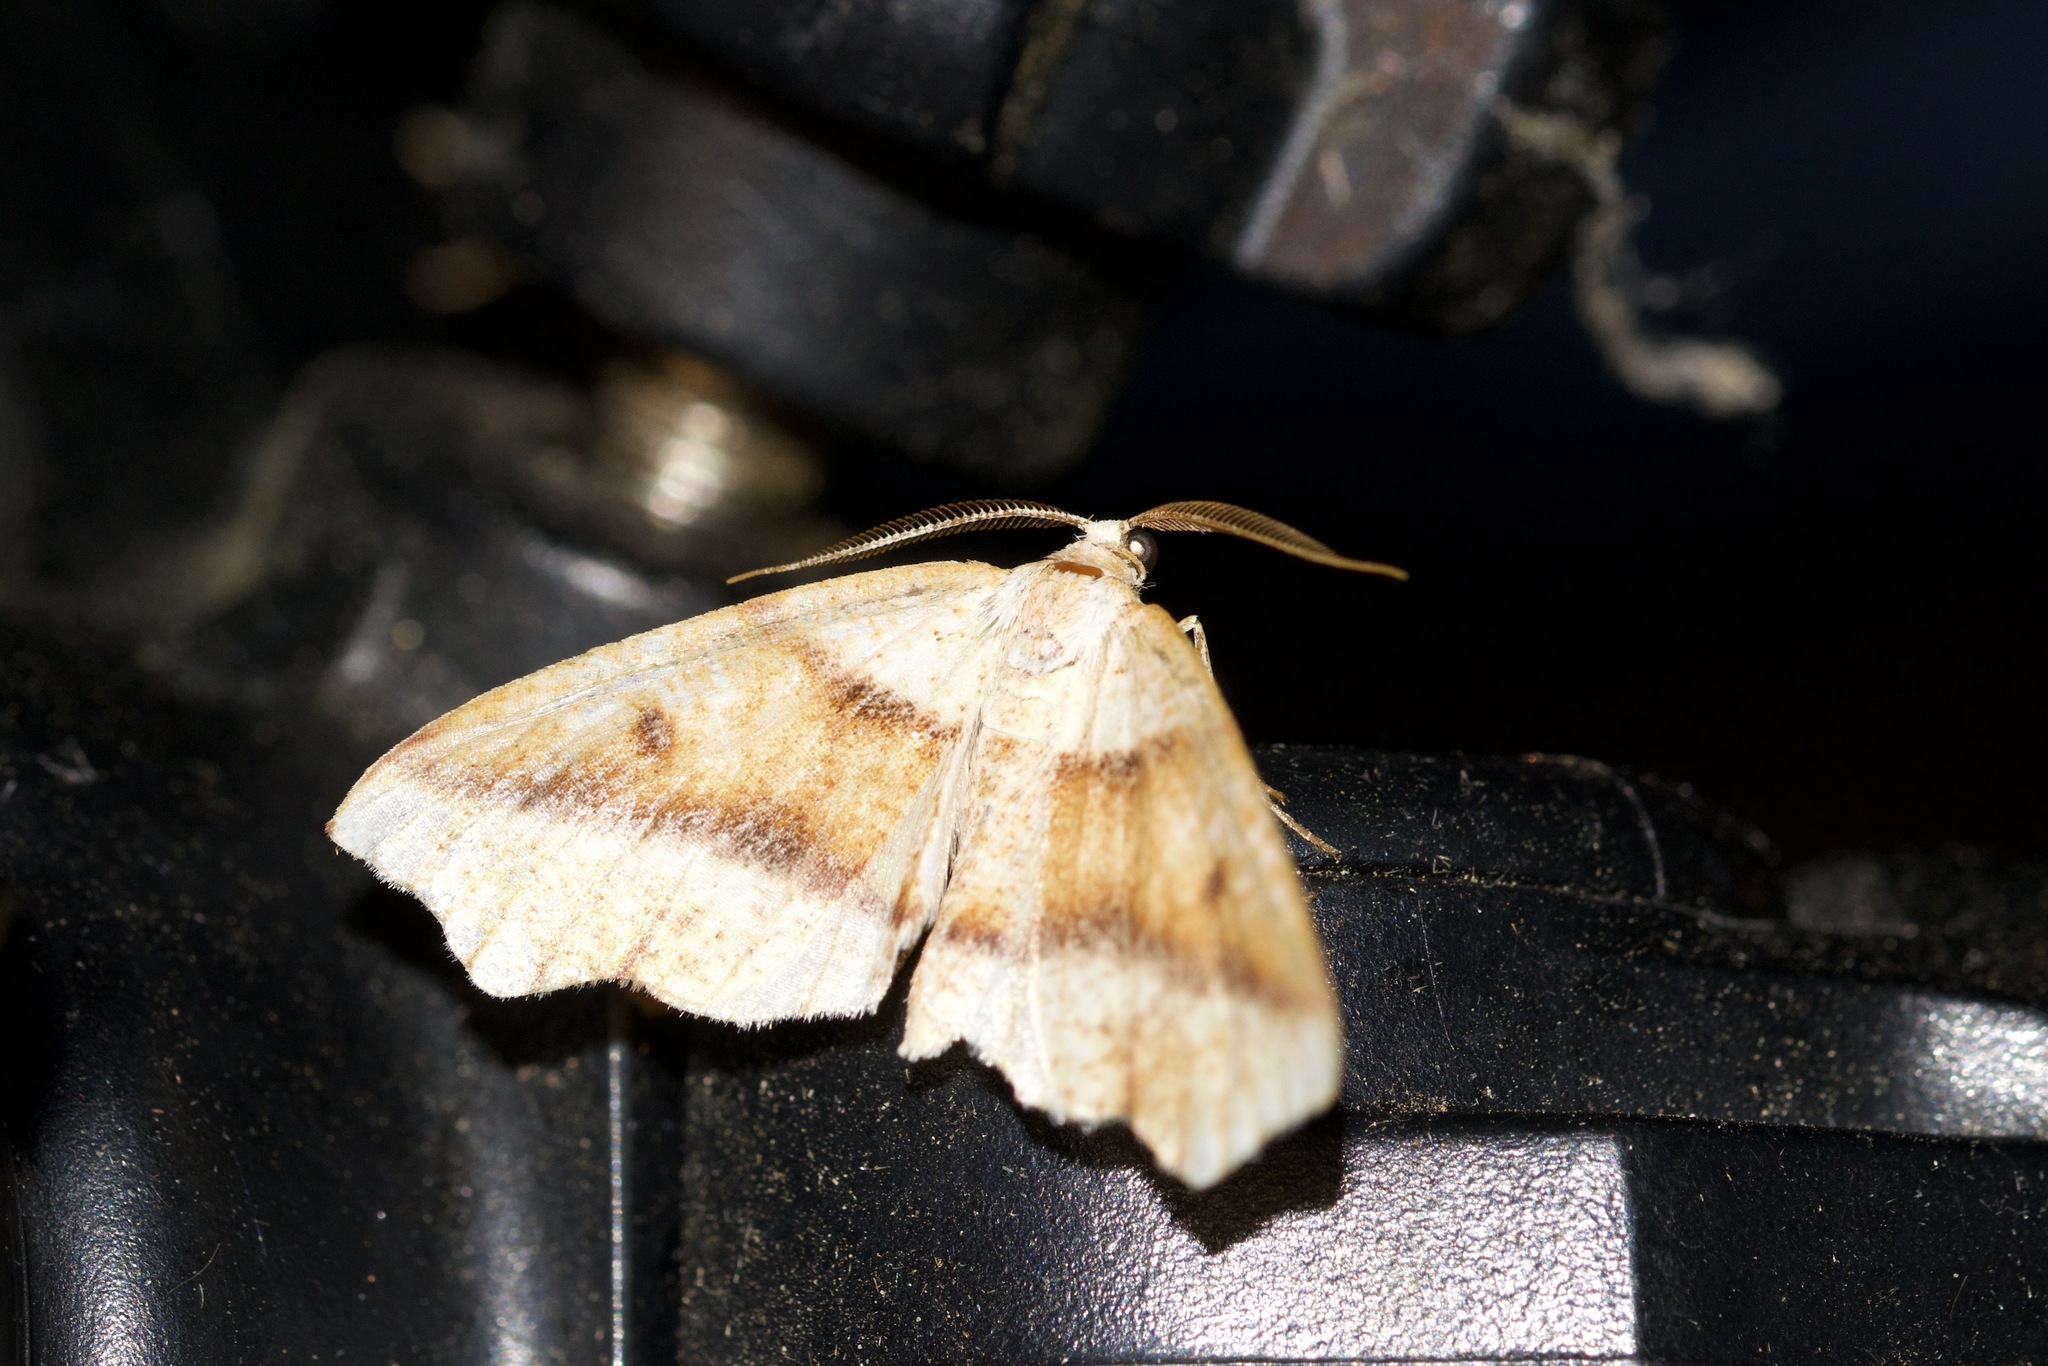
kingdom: Animalia
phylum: Arthropoda
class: Insecta
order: Lepidoptera
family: Geometridae
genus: Plagodis
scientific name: Plagodis alcoolaria
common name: Hollow-spotted plagodis
